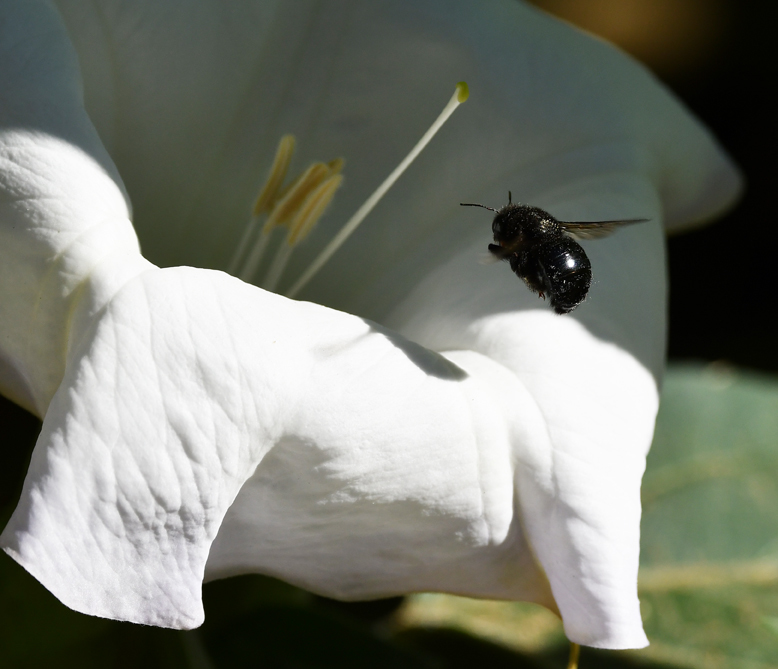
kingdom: Animalia
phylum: Arthropoda
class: Insecta
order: Hymenoptera
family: Apidae
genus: Xylocopa
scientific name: Xylocopa tabaniformis
